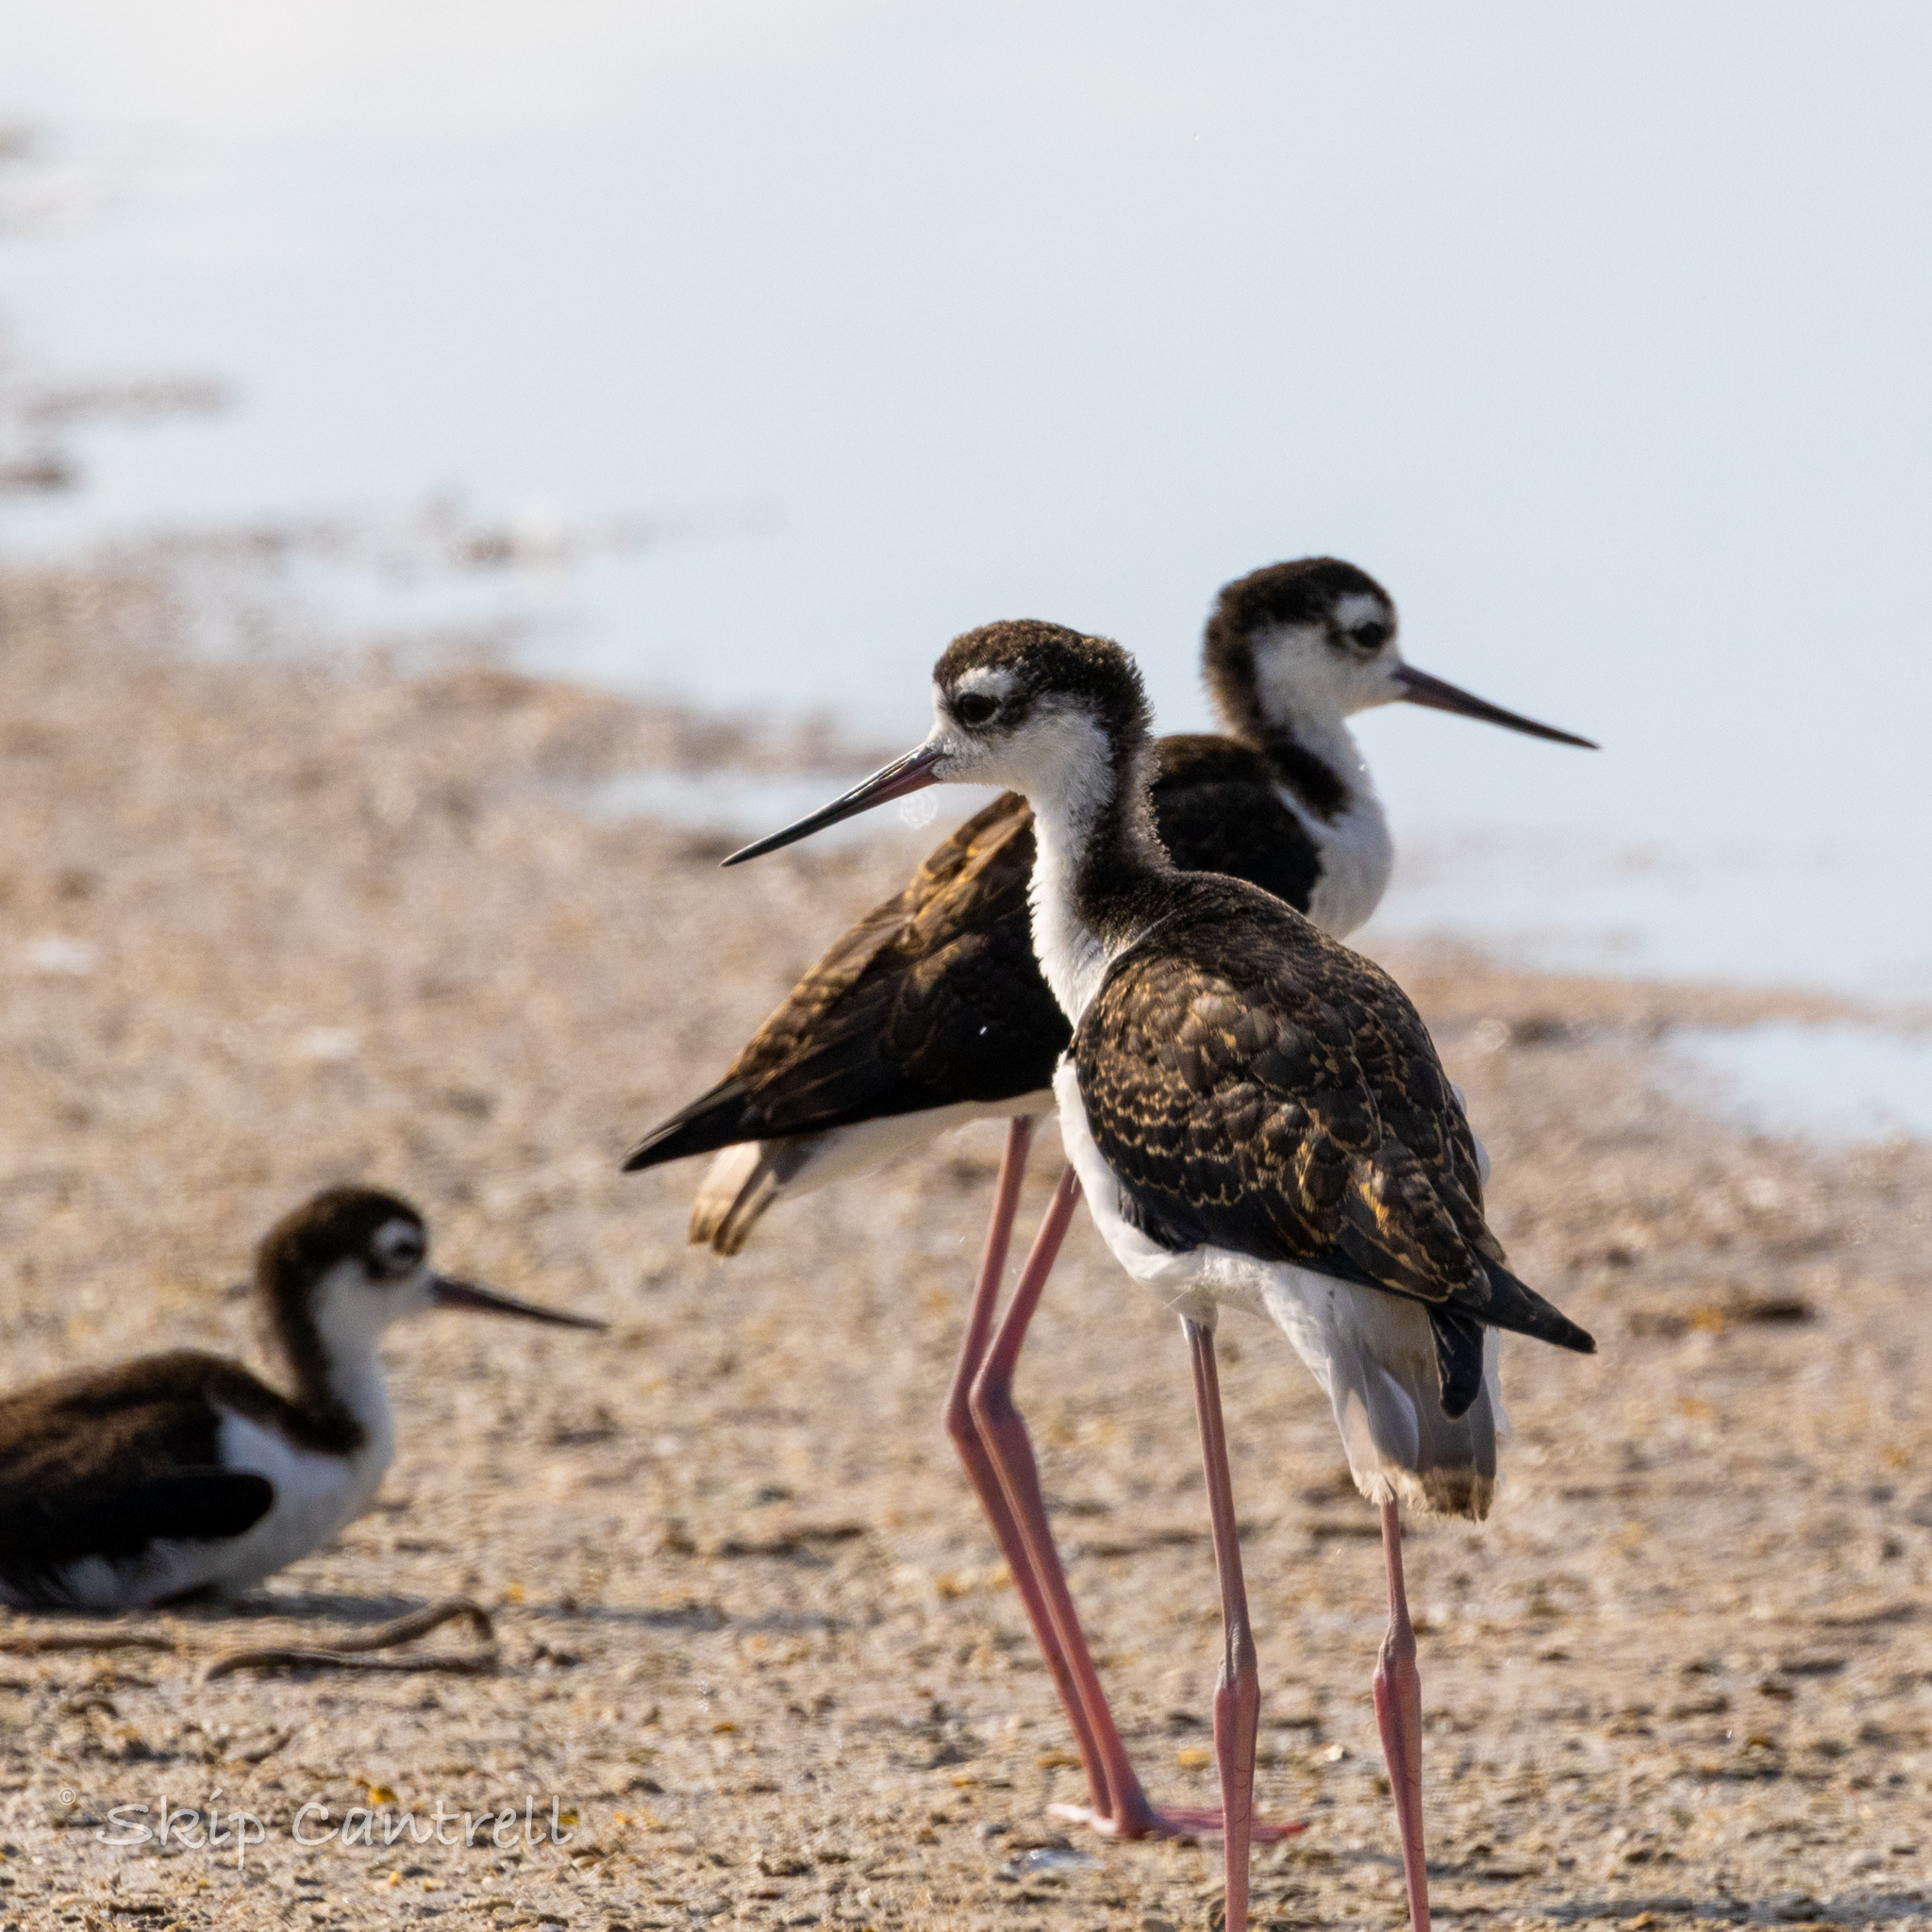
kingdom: Animalia
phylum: Chordata
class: Aves
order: Charadriiformes
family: Recurvirostridae
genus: Himantopus
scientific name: Himantopus mexicanus
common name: Black-necked stilt
